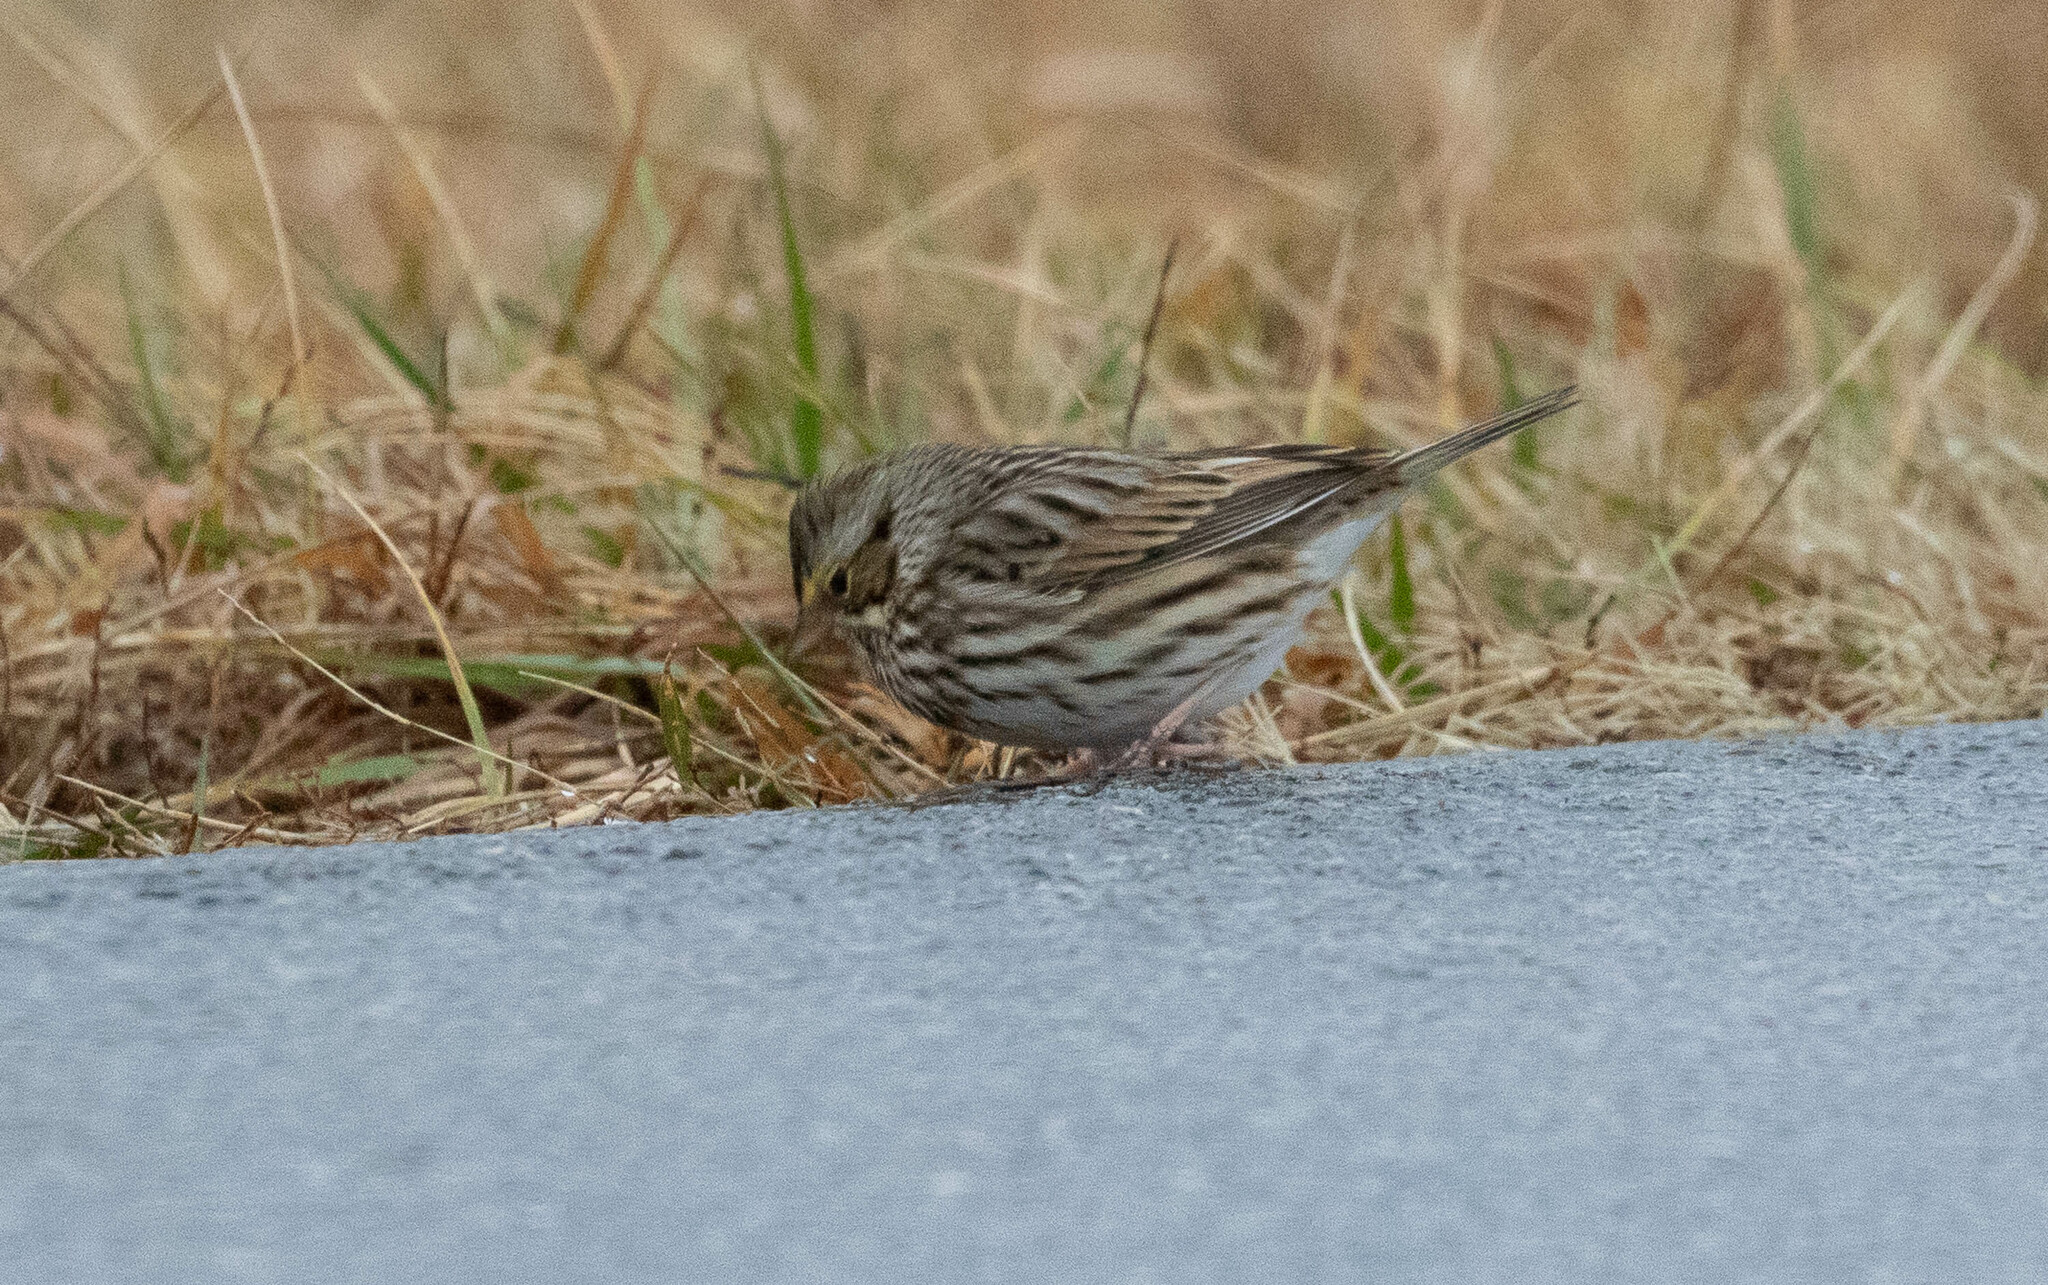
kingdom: Animalia
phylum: Chordata
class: Aves
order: Passeriformes
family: Passerellidae
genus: Passerculus
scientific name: Passerculus sandwichensis
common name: Savannah sparrow
